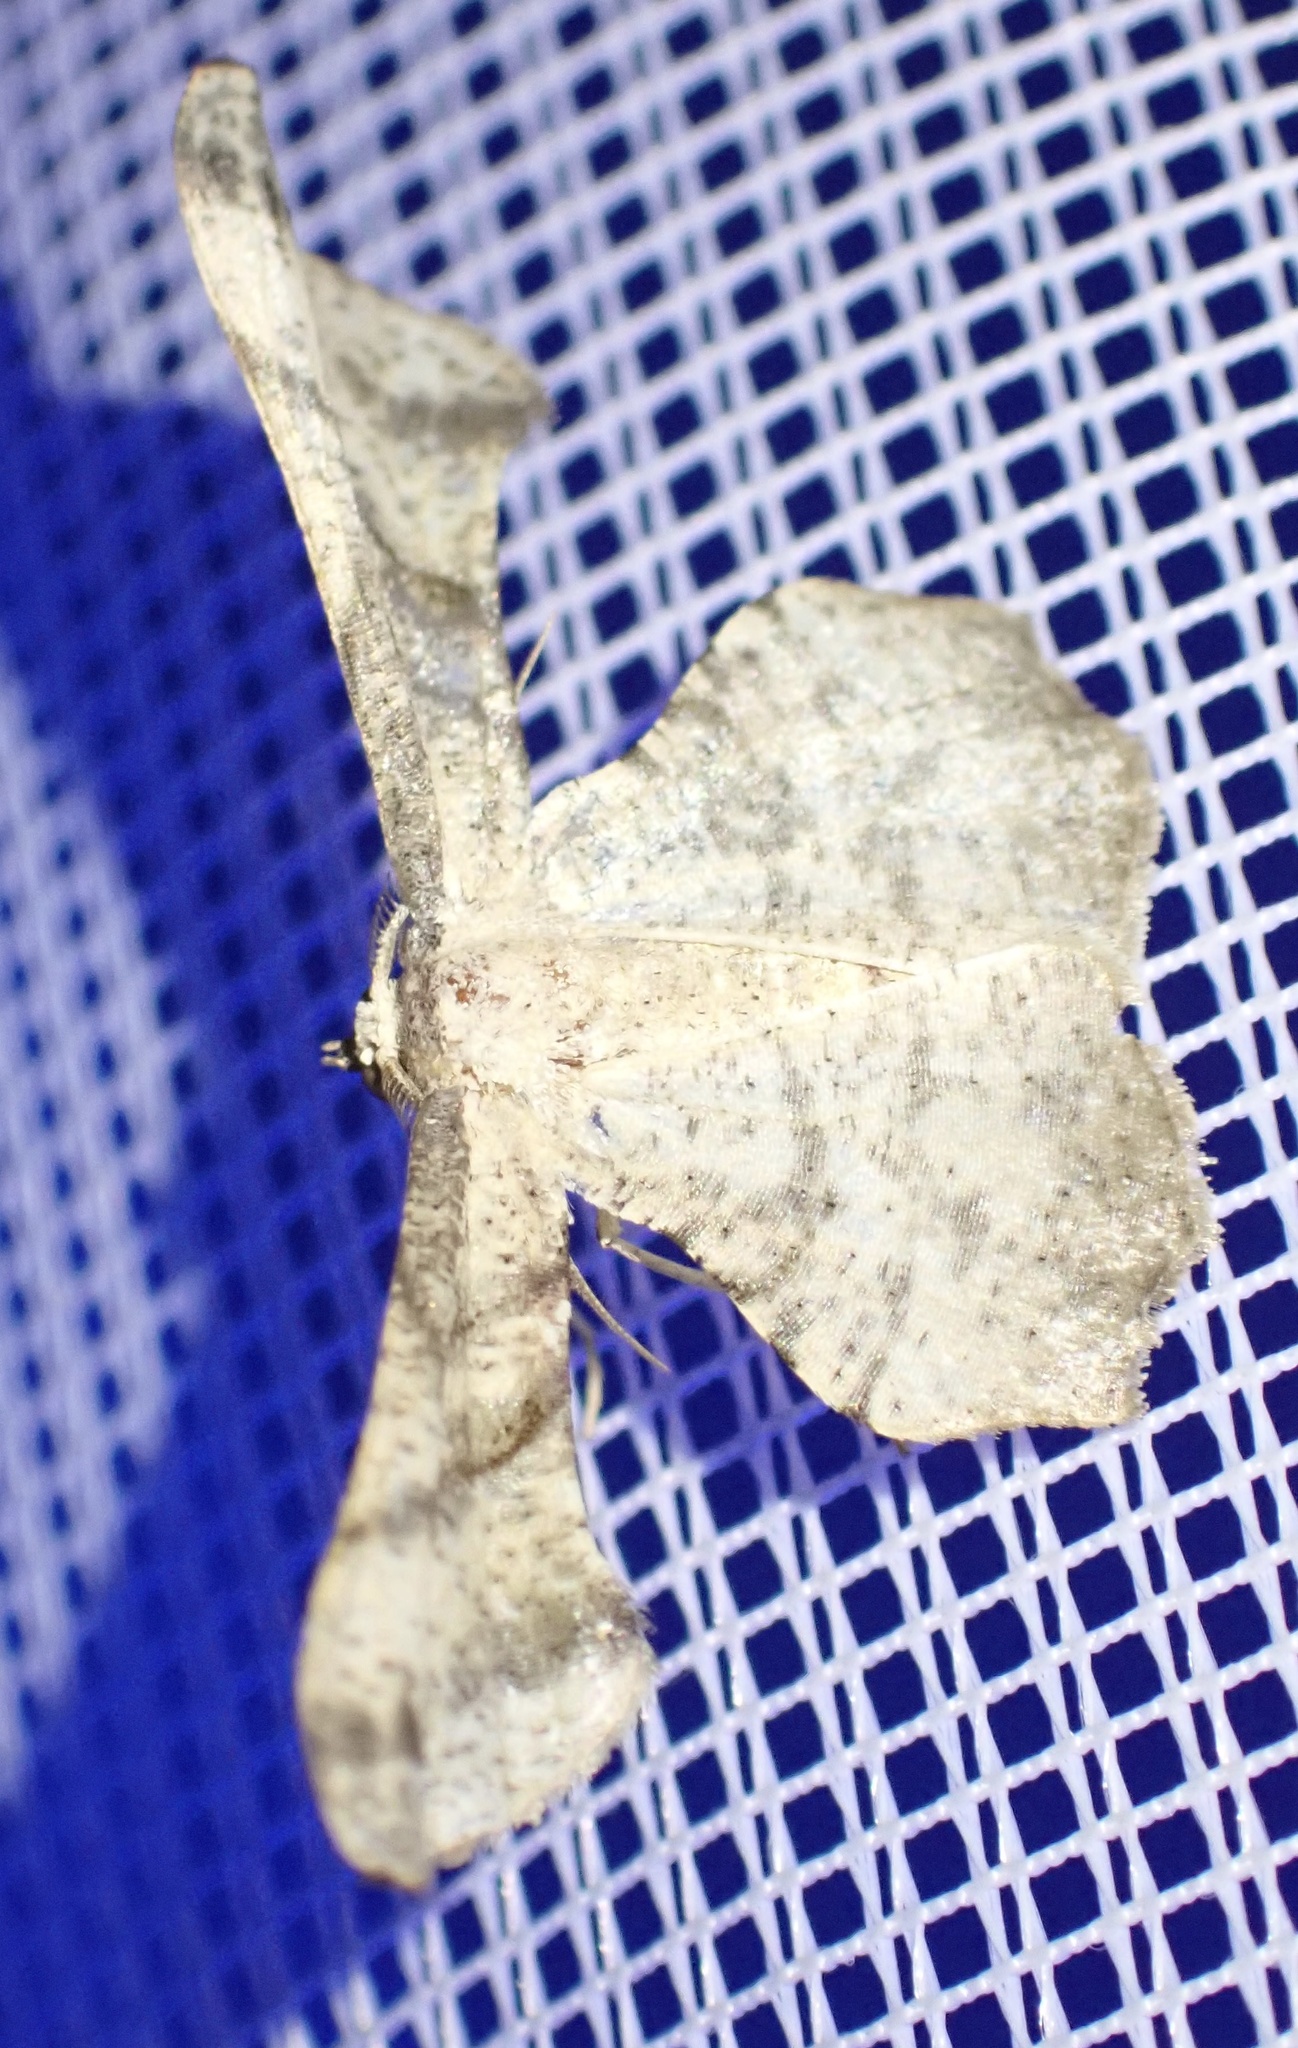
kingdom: Animalia
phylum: Arthropoda
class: Insecta
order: Lepidoptera
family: Geometridae
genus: Xenimpia
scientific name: Xenimpia erosa
